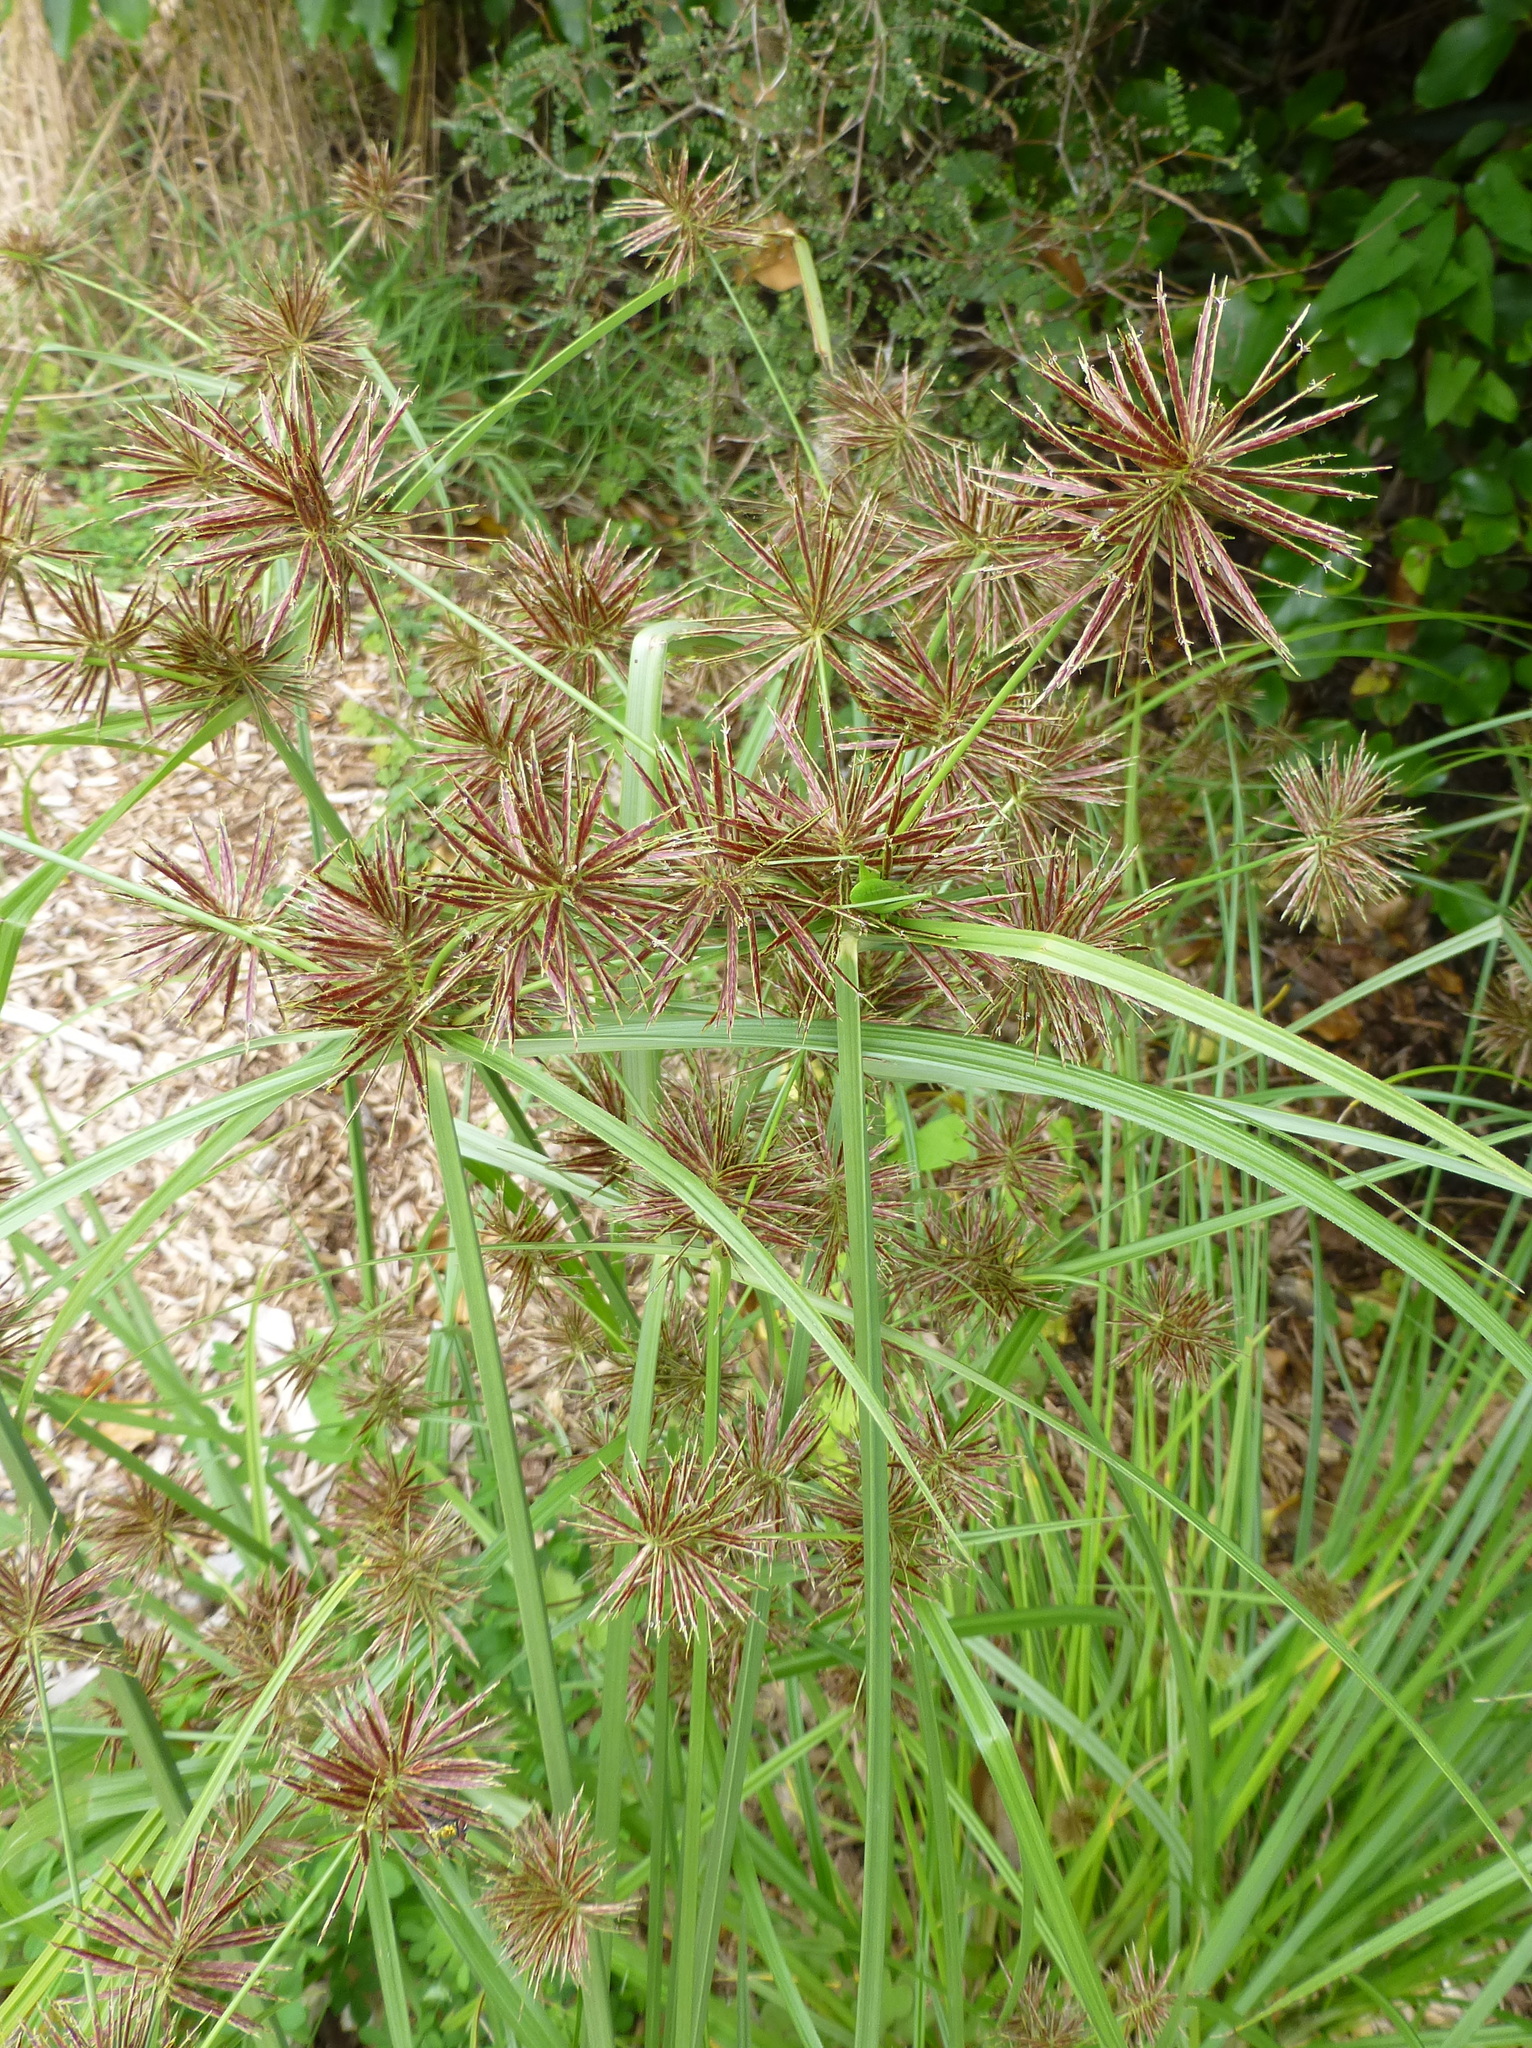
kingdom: Plantae
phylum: Tracheophyta
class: Liliopsida
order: Poales
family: Cyperaceae
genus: Cyperus
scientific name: Cyperus congestus
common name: Dense flat sedge
